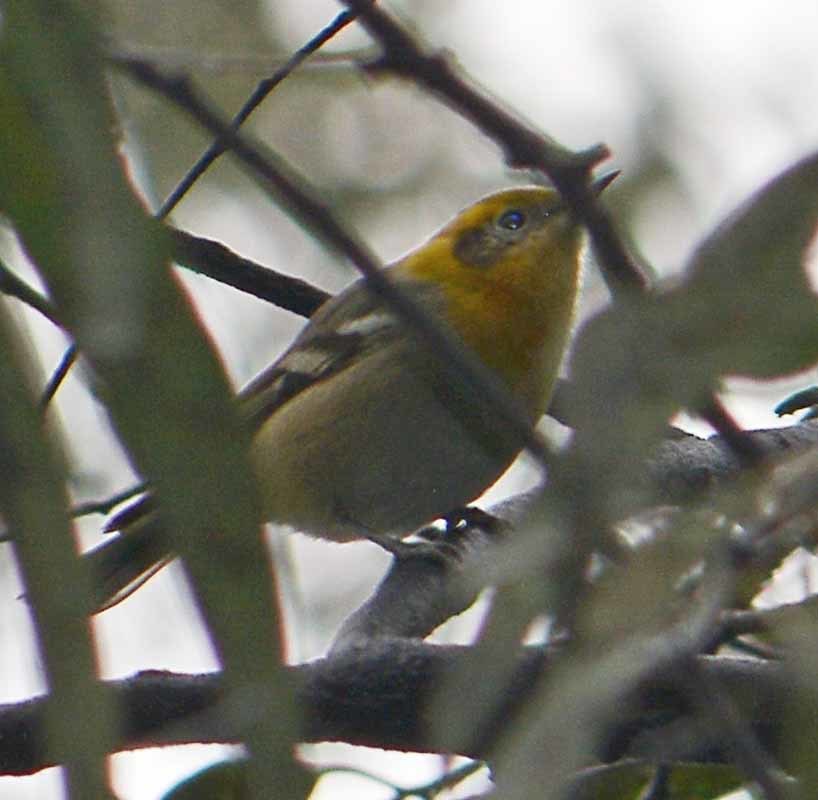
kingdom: Animalia
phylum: Chordata
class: Aves
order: Passeriformes
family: Peucedramidae
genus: Peucedramus
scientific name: Peucedramus taeniatus
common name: Olive warbler
